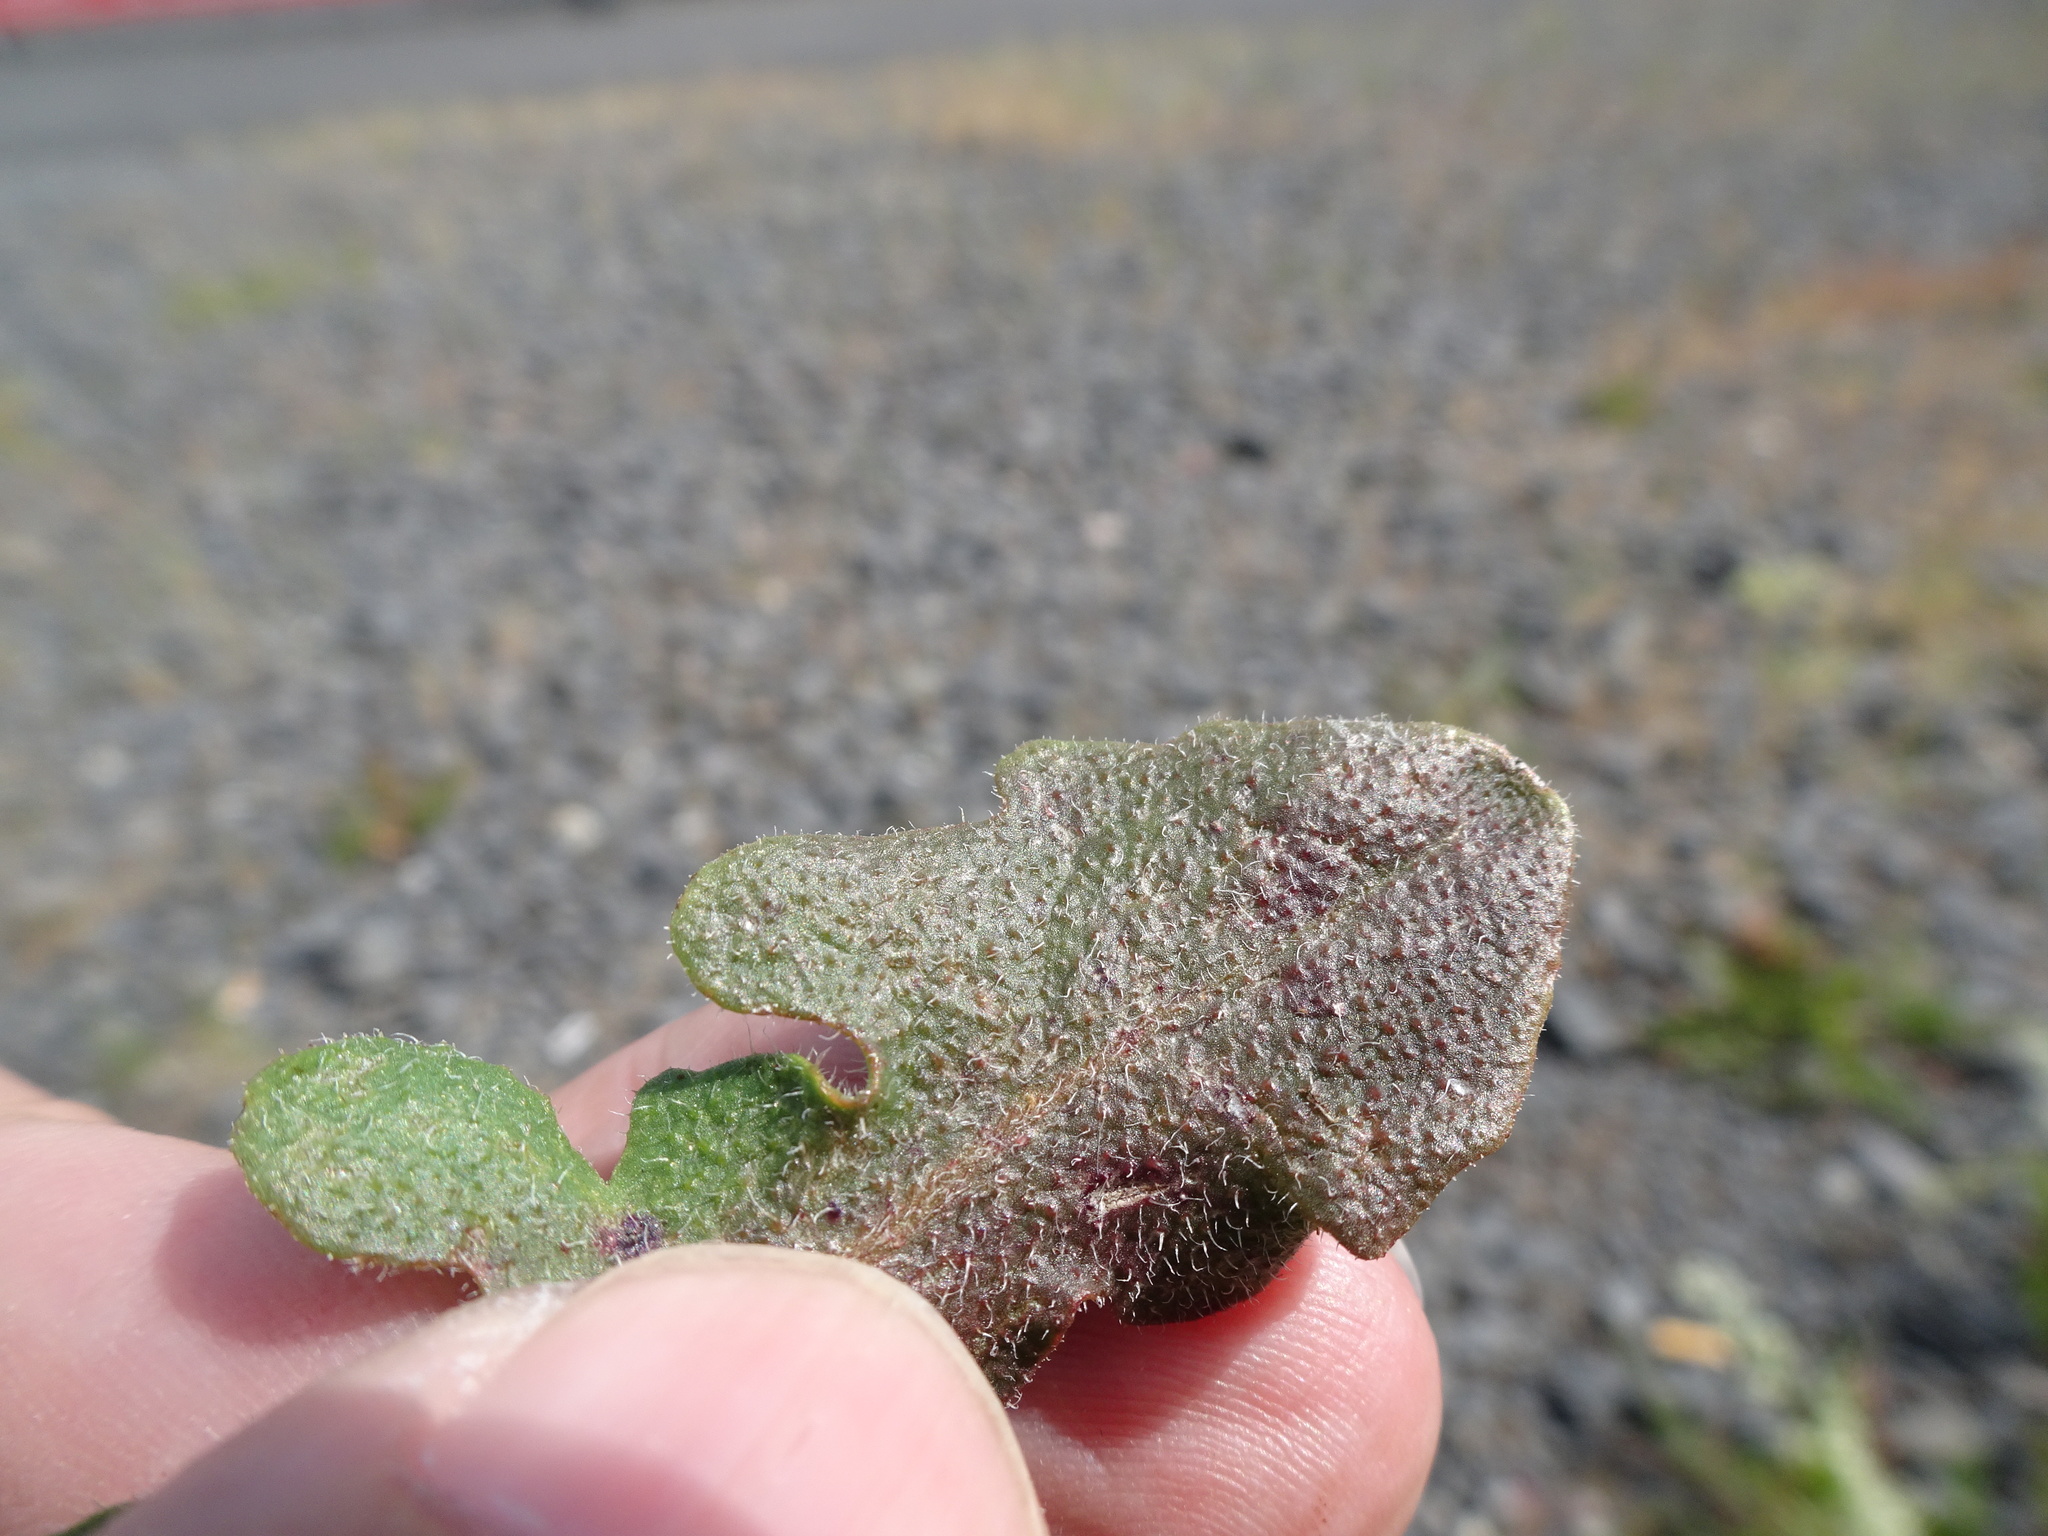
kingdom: Plantae
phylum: Tracheophyta
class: Magnoliopsida
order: Asterales
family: Asteraceae
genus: Hypochaeris
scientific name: Hypochaeris radicata
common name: Flatweed
